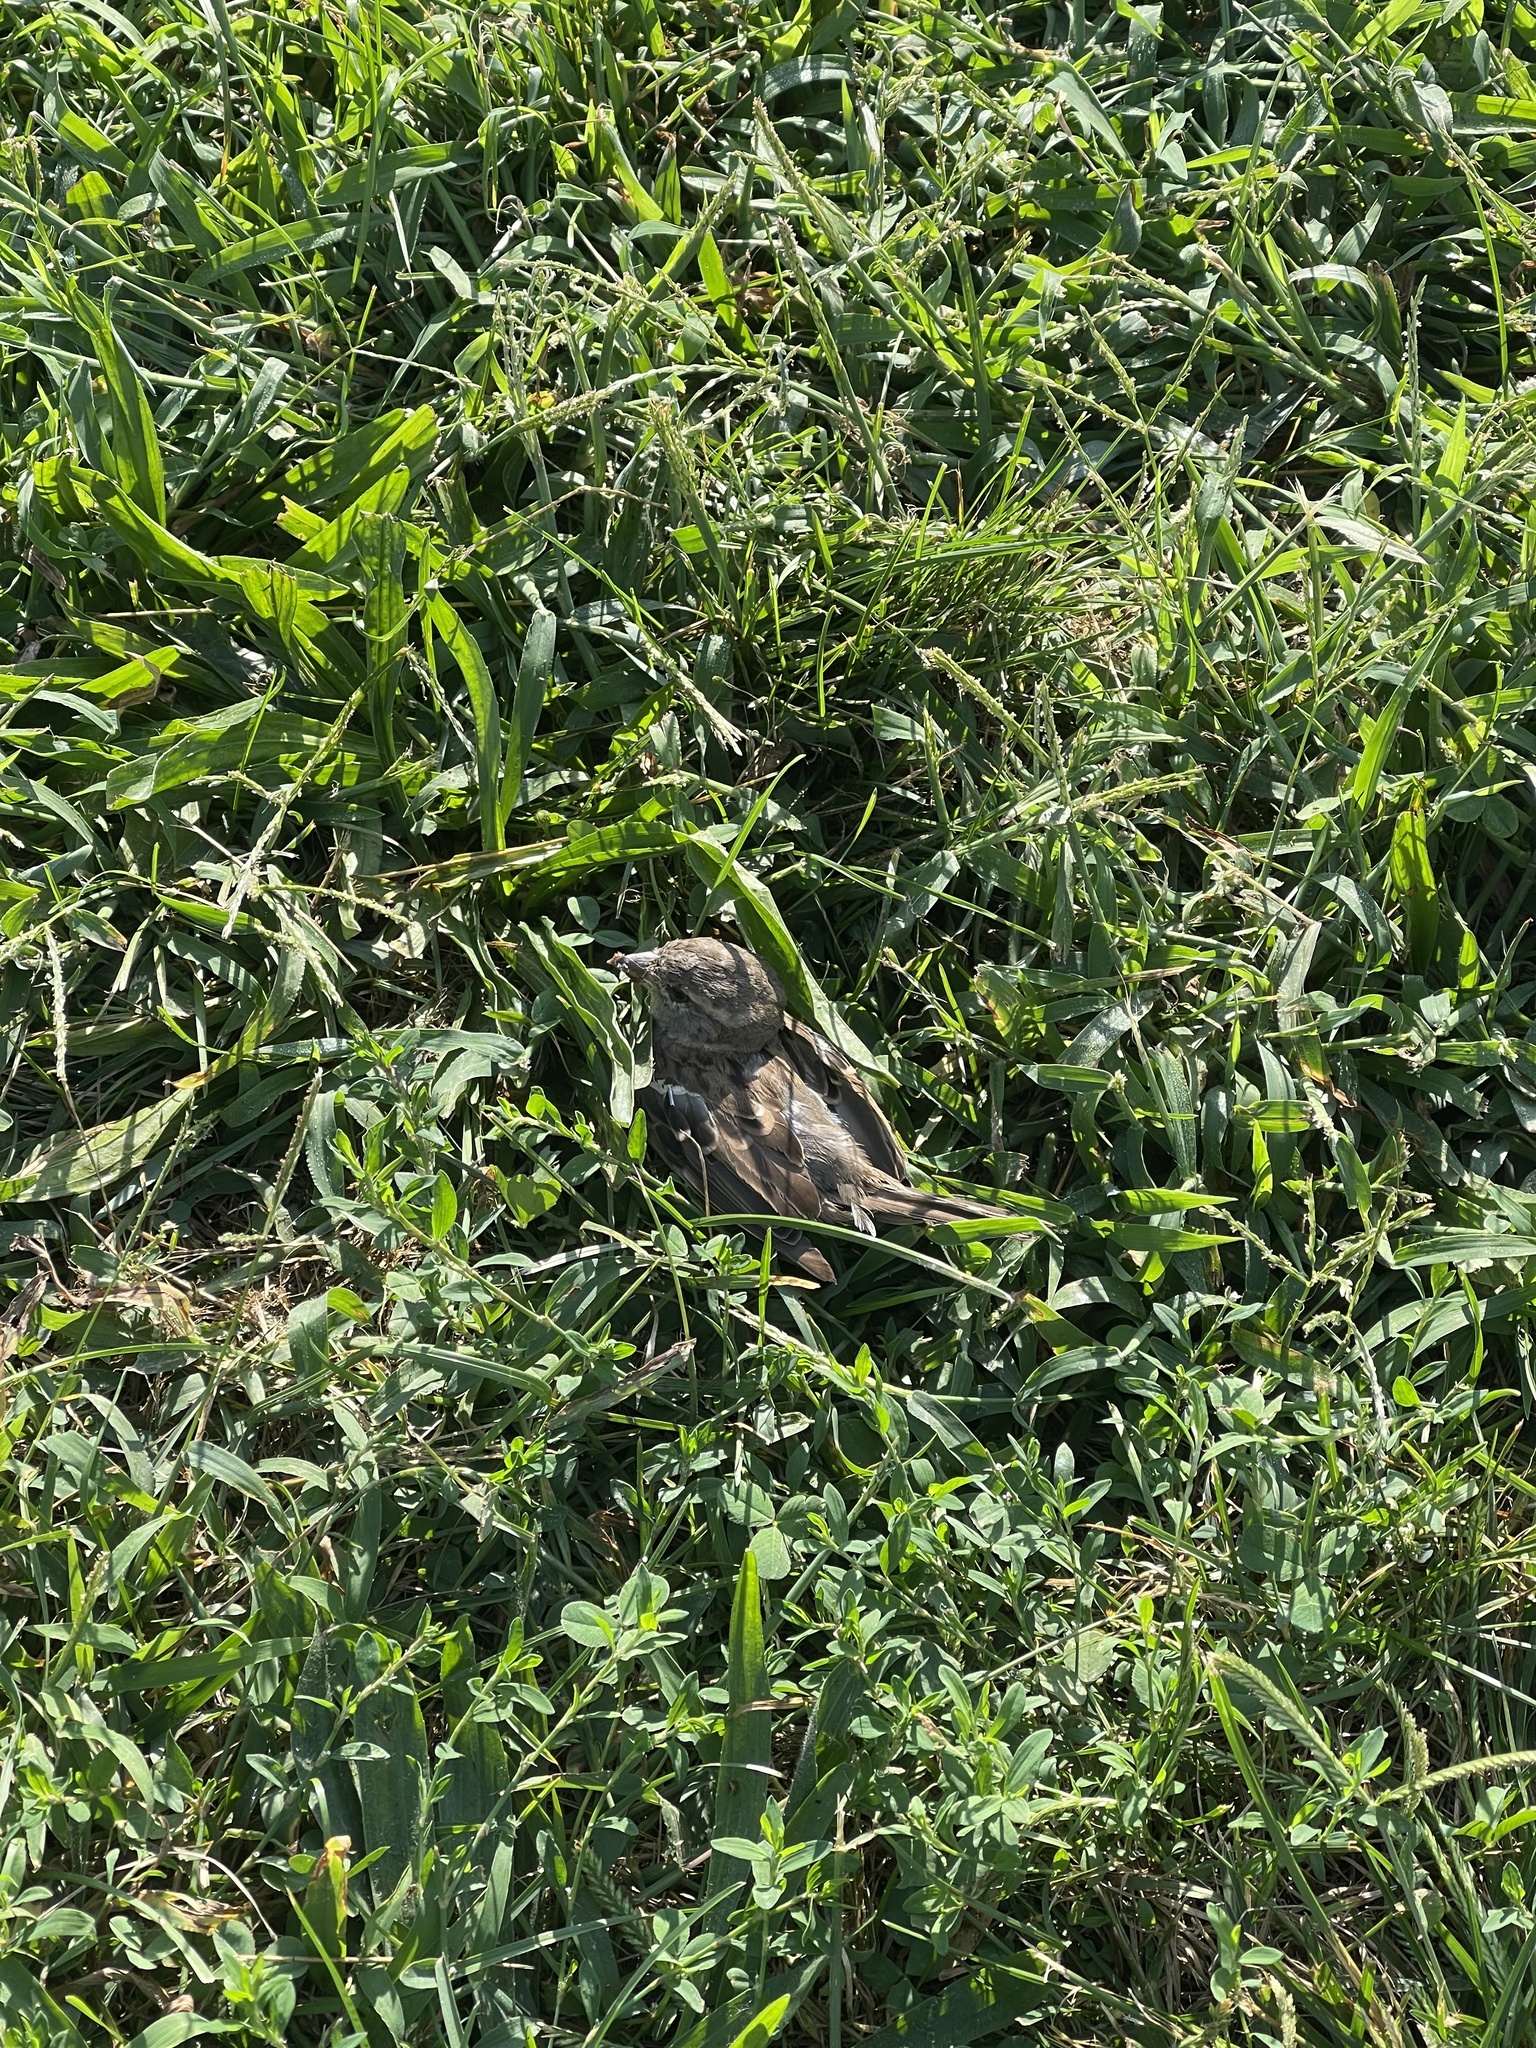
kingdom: Animalia
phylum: Chordata
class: Aves
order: Passeriformes
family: Passeridae
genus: Passer
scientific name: Passer domesticus
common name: House sparrow
